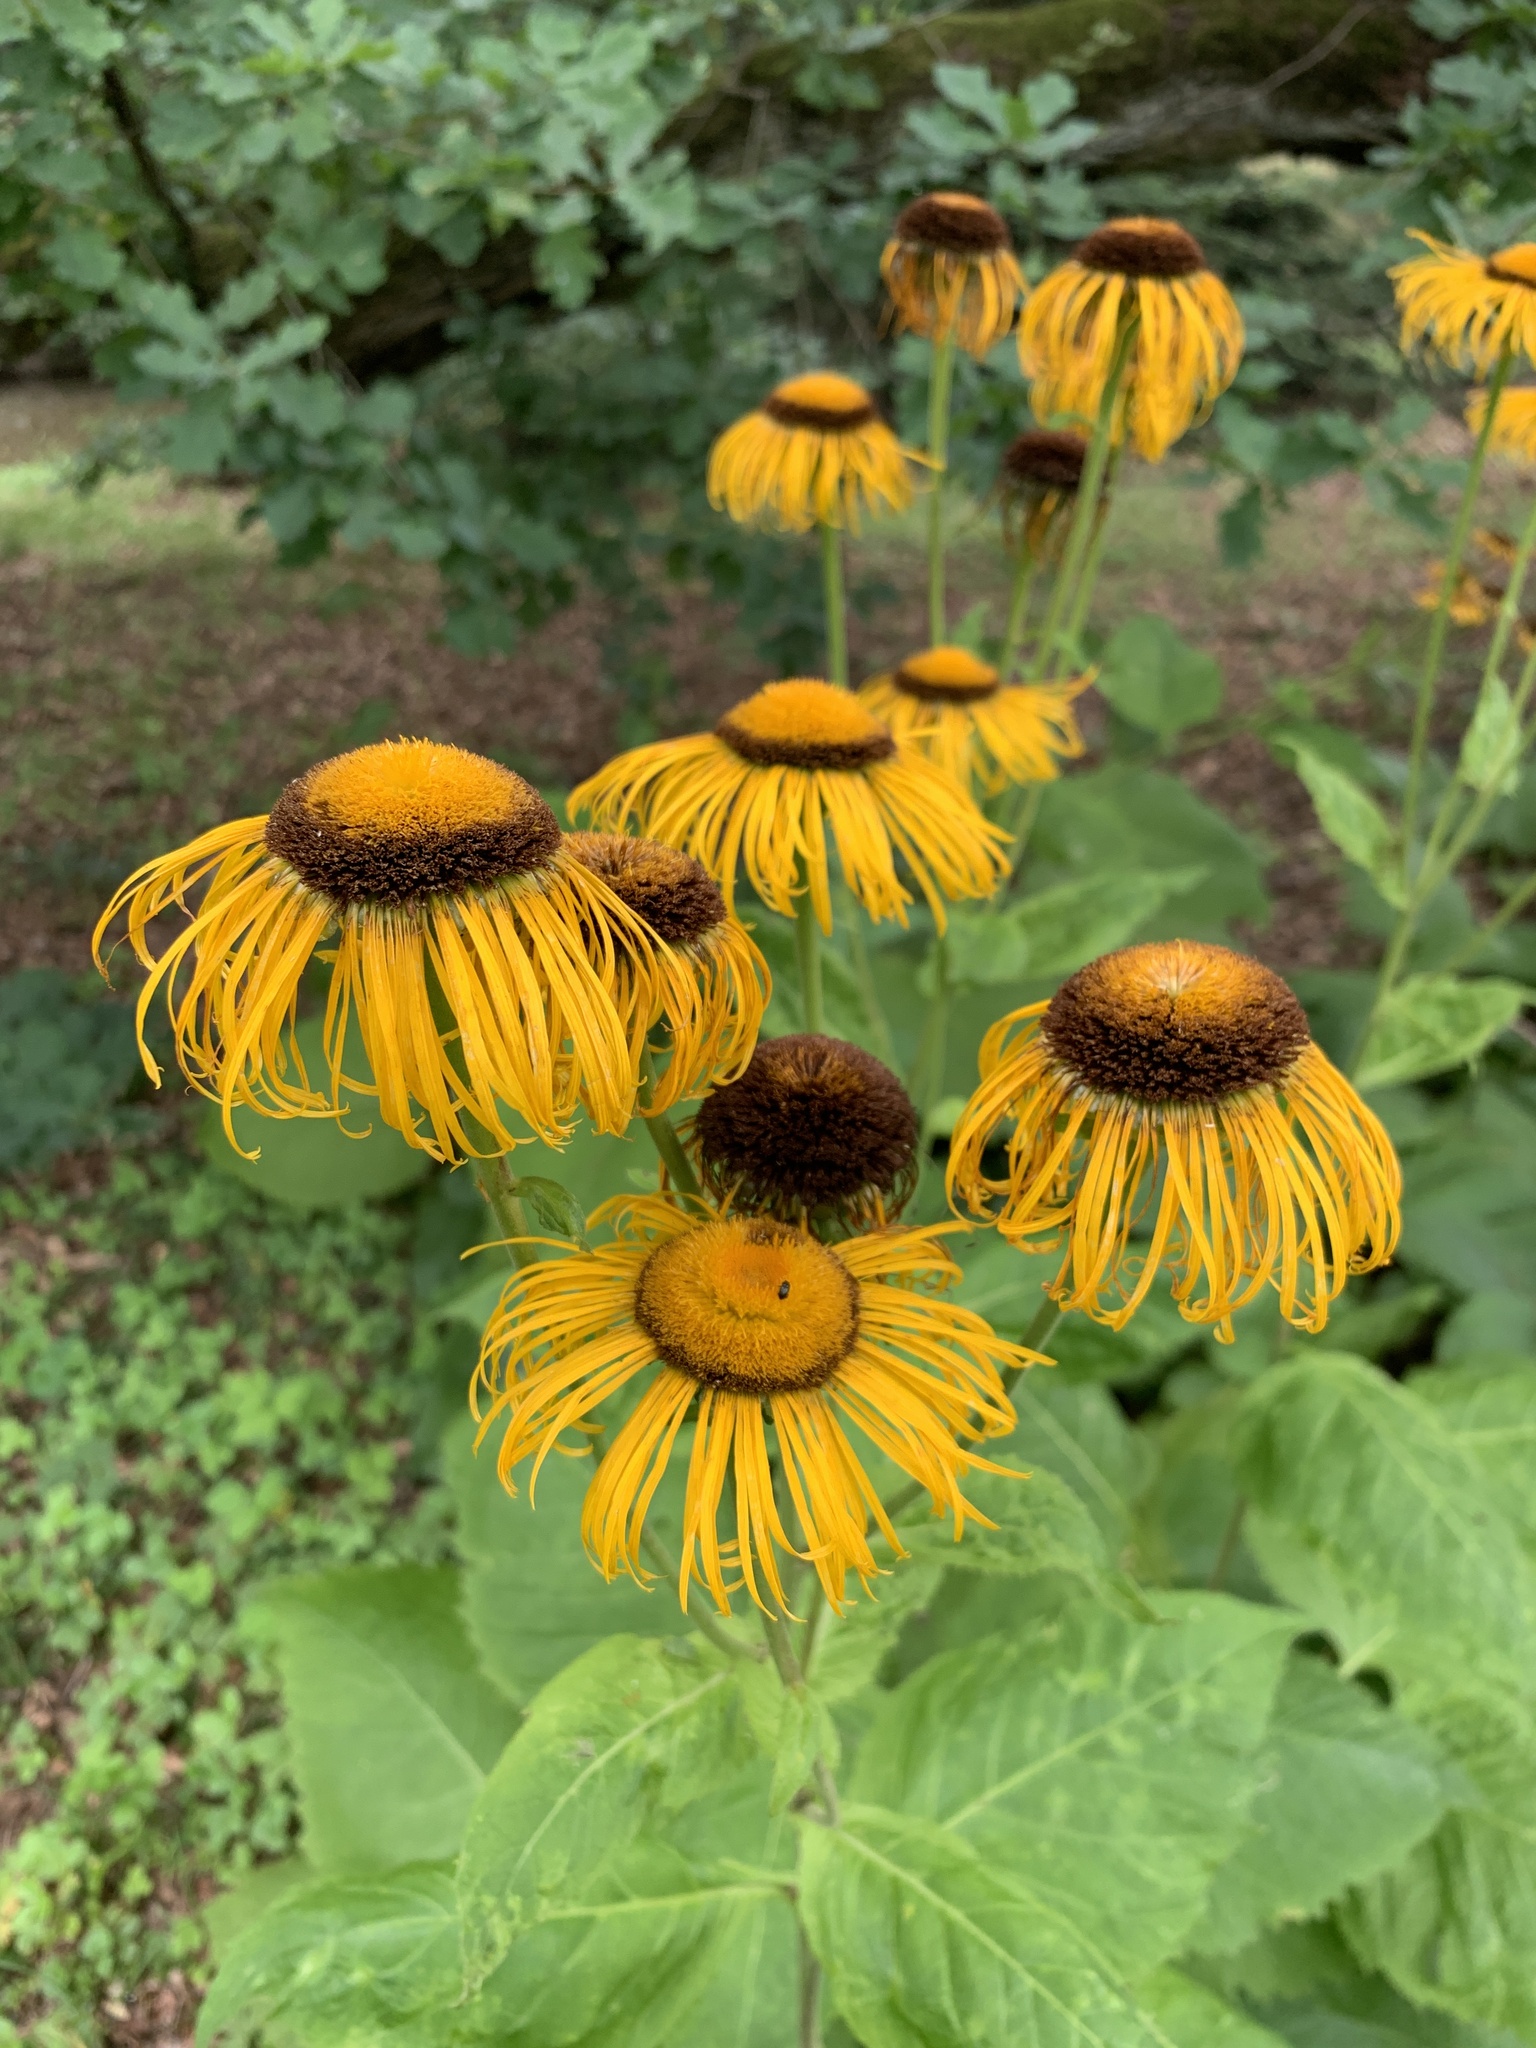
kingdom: Plantae
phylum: Tracheophyta
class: Magnoliopsida
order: Asterales
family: Asteraceae
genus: Telekia
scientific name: Telekia speciosa
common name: Yellow oxeye
